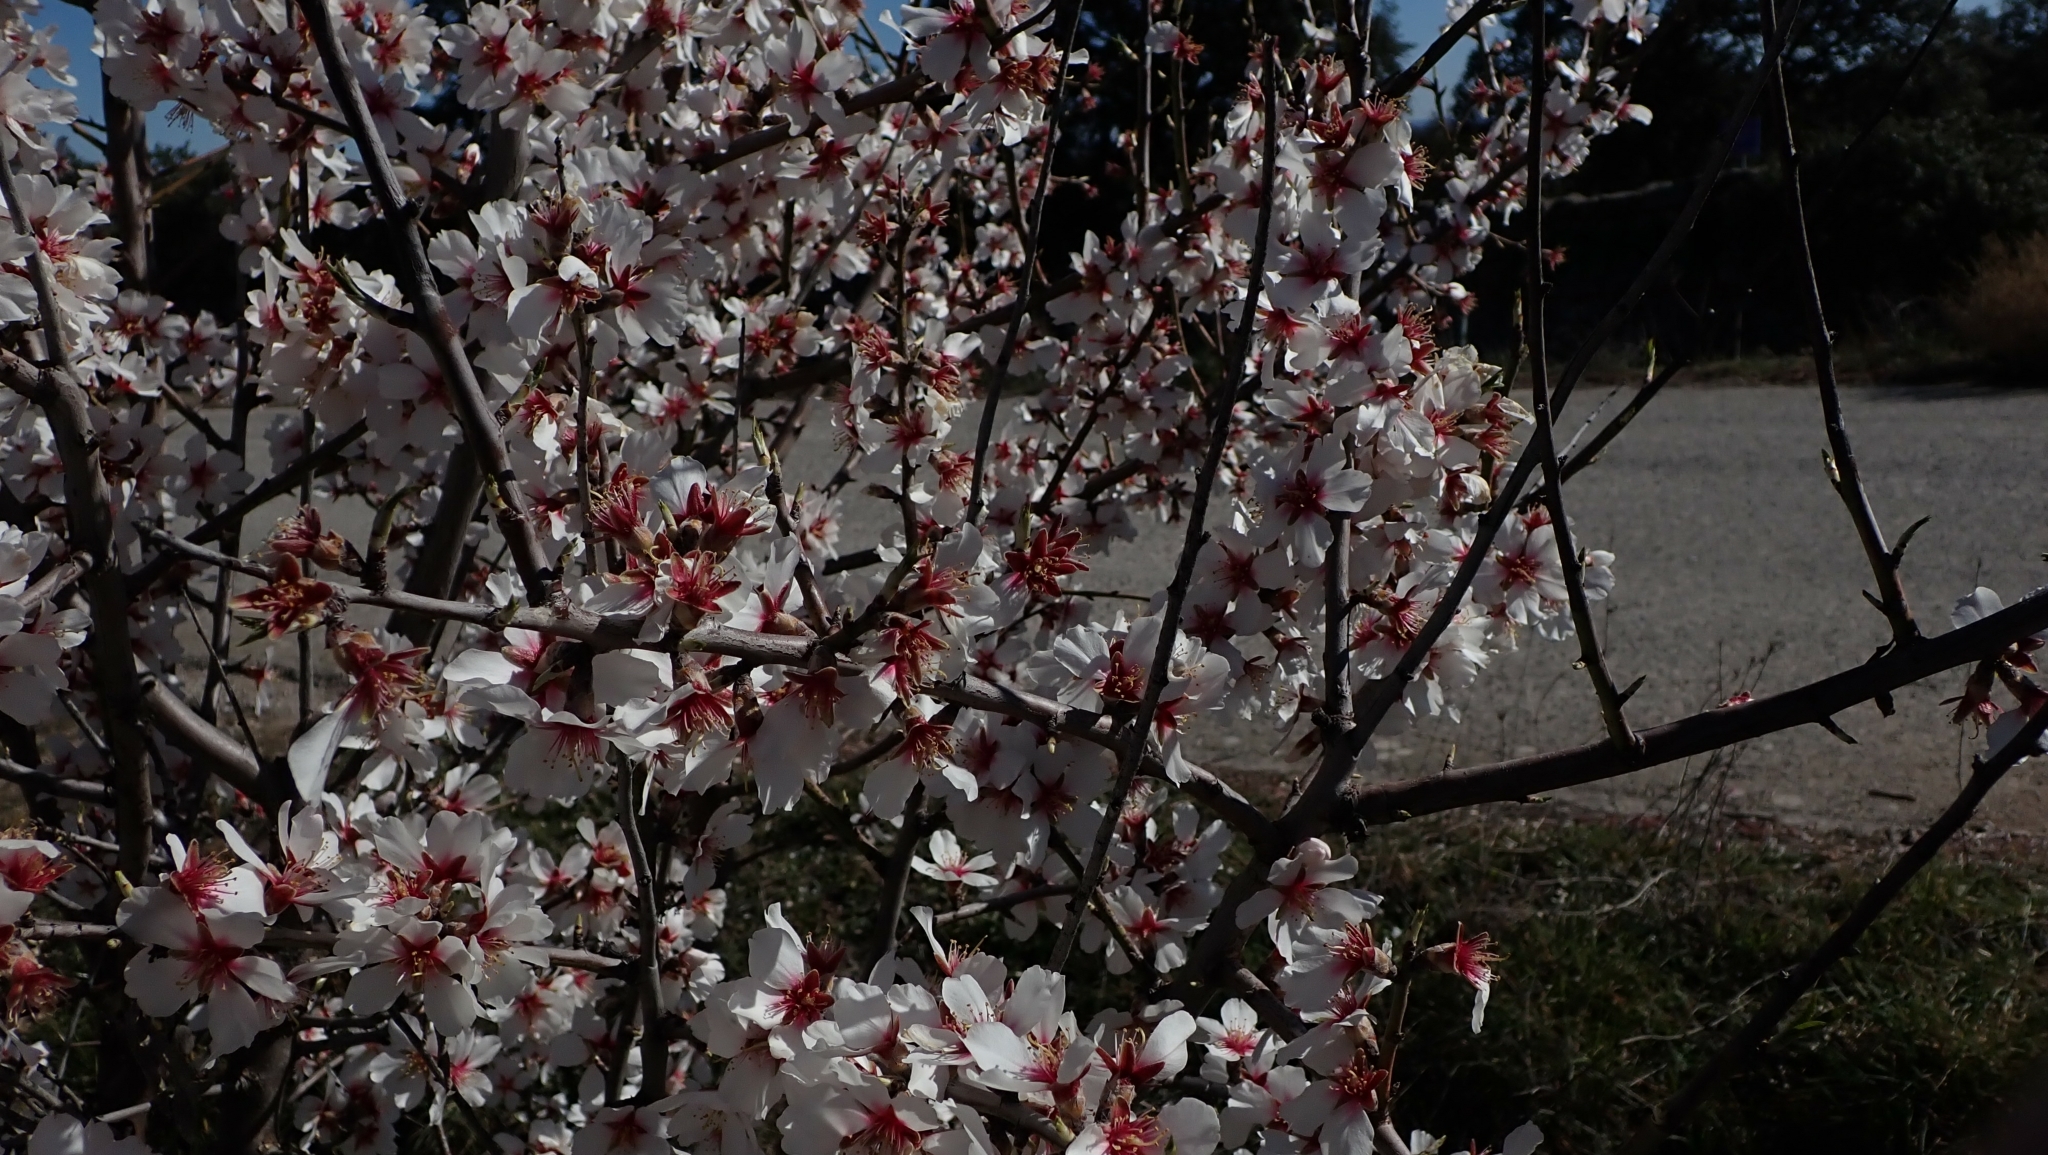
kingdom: Plantae
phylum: Tracheophyta
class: Magnoliopsida
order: Rosales
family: Rosaceae
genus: Prunus
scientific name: Prunus amygdalus
